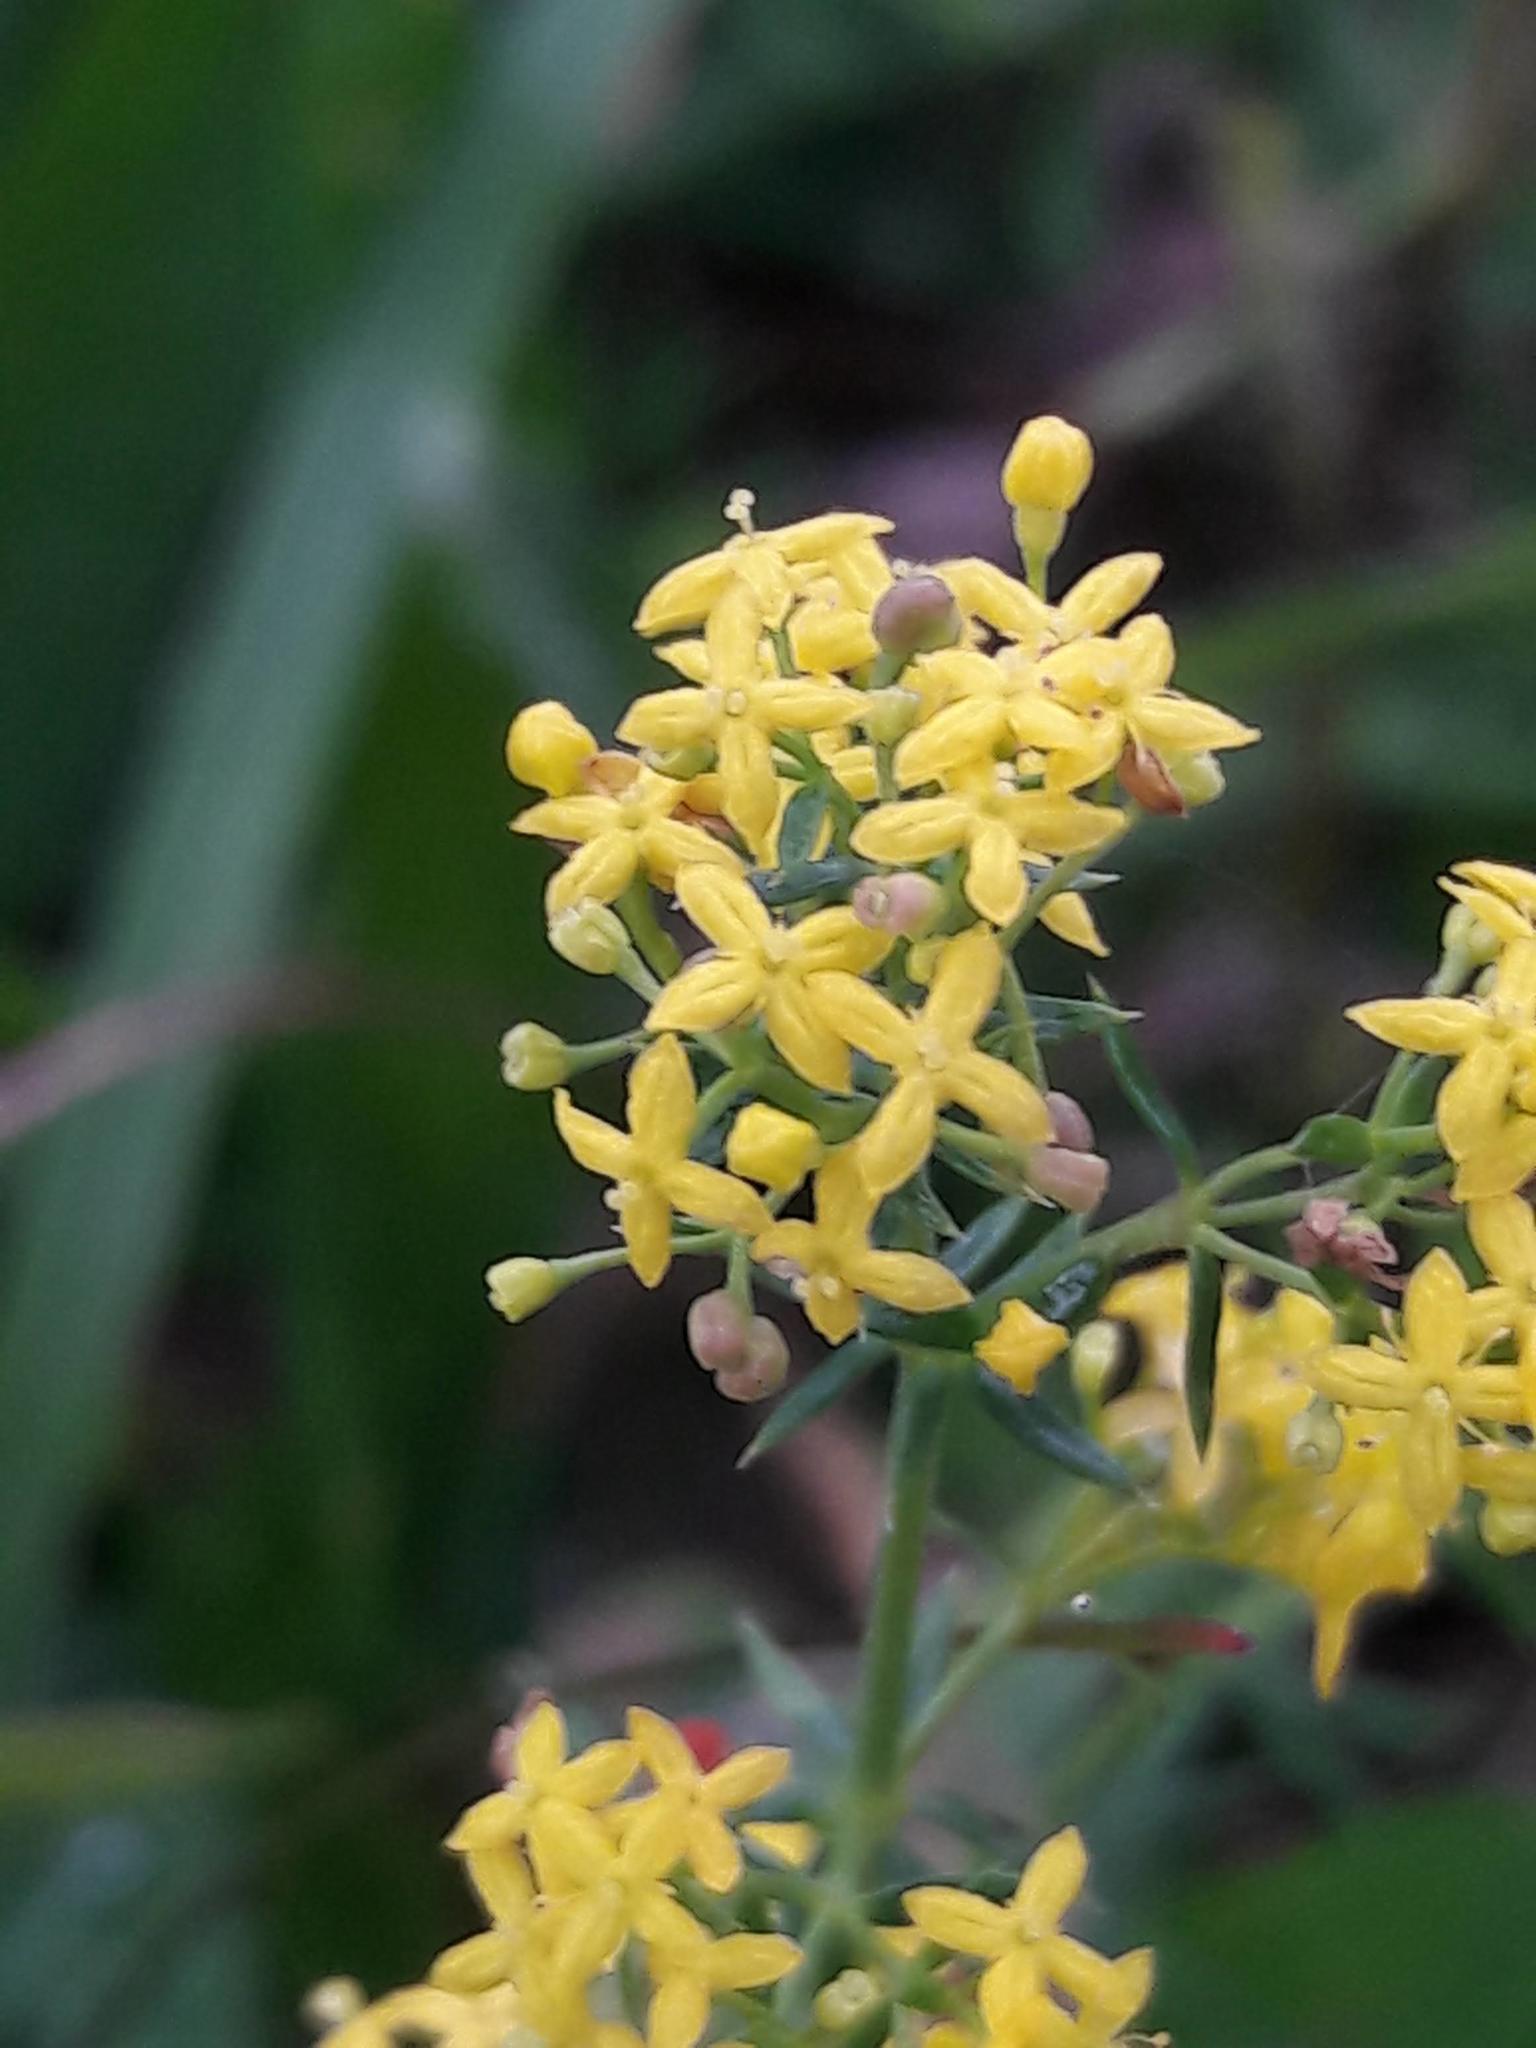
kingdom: Plantae
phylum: Tracheophyta
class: Magnoliopsida
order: Gentianales
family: Rubiaceae
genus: Galium
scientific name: Galium verum
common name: Lady's bedstraw
